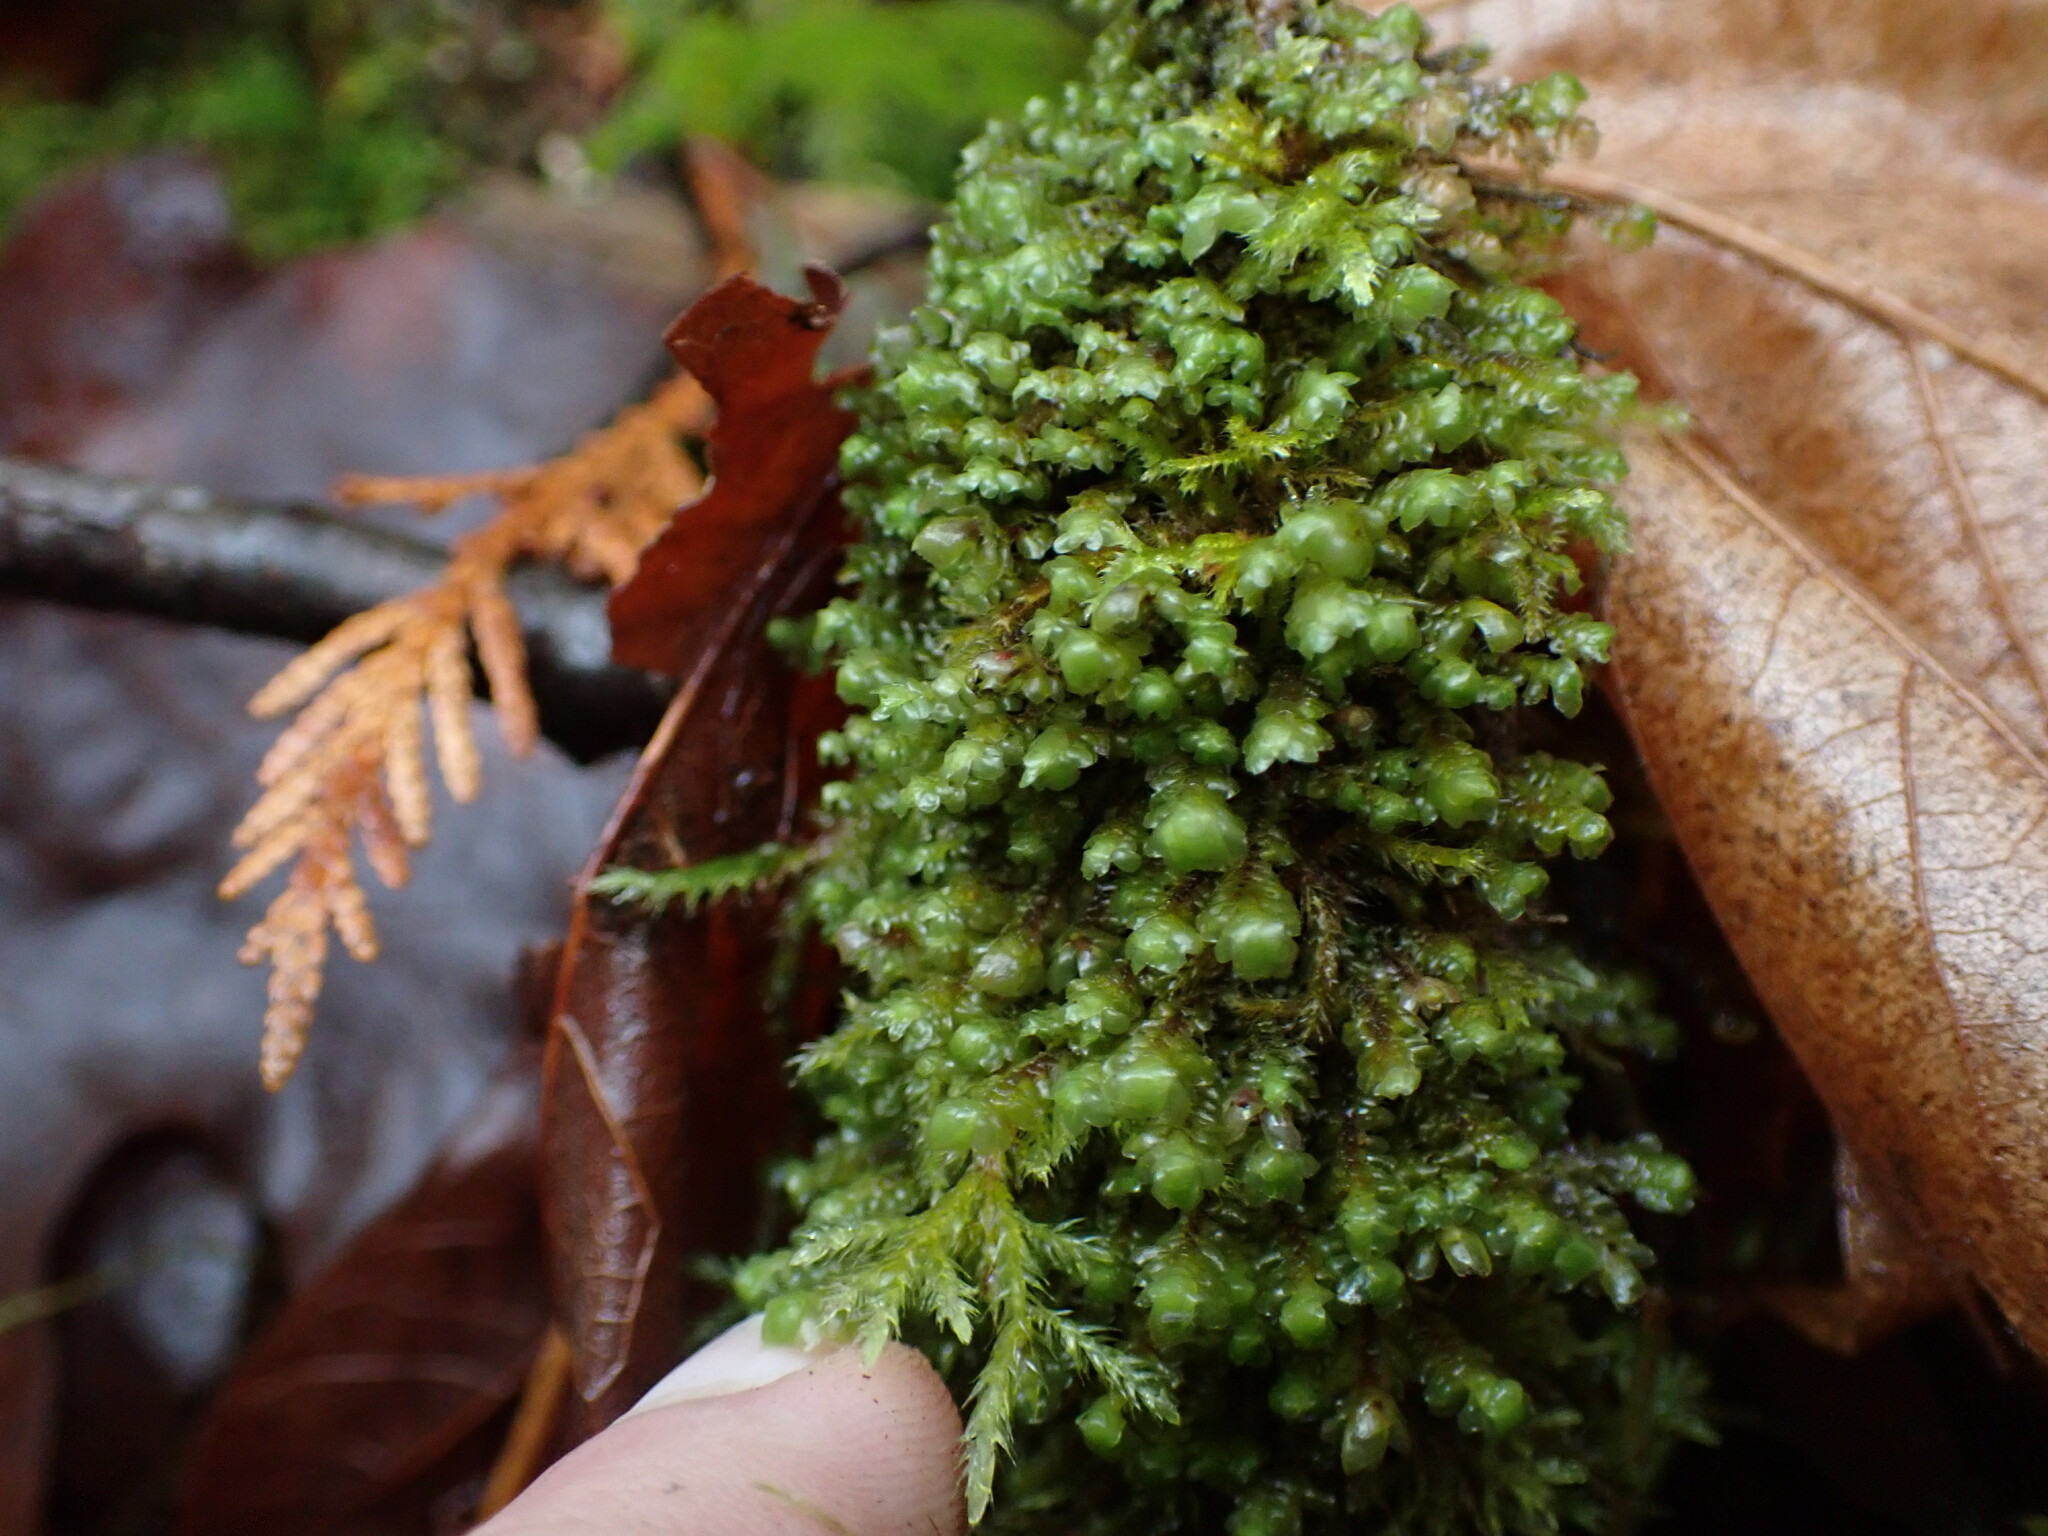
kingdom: Plantae
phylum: Marchantiophyta
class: Jungermanniopsida
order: Jungermanniales
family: Scapaniaceae
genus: Scapania
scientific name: Scapania bolanderi
